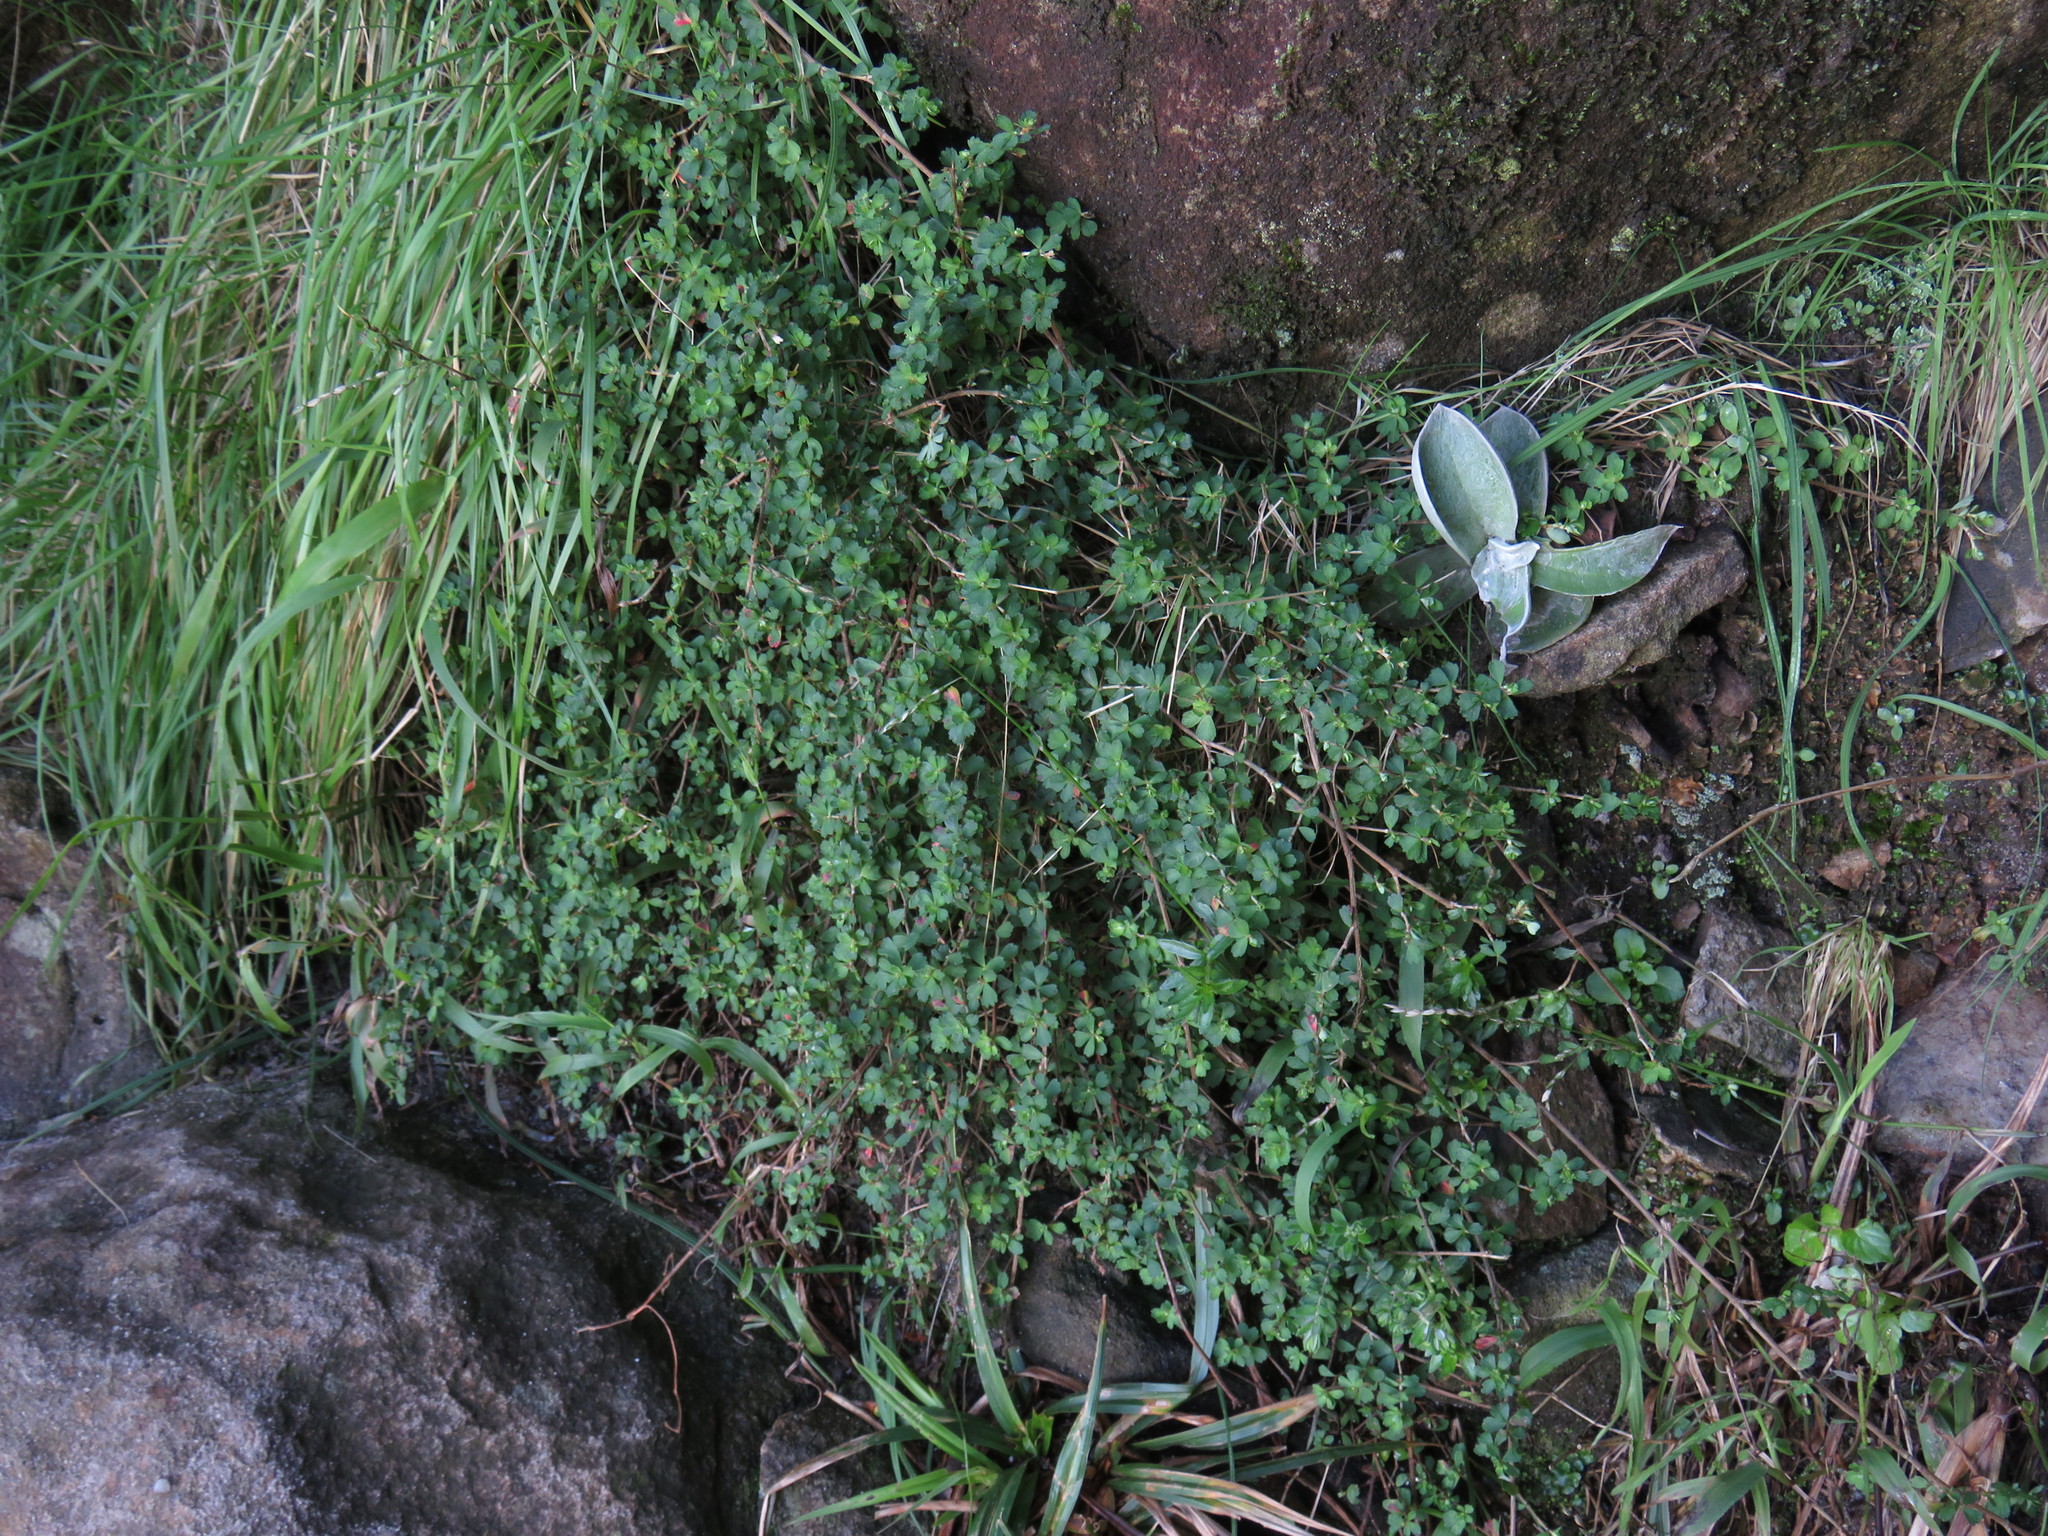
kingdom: Plantae
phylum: Tracheophyta
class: Magnoliopsida
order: Rosales
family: Rosaceae
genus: Cliffortia
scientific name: Cliffortia dentata
